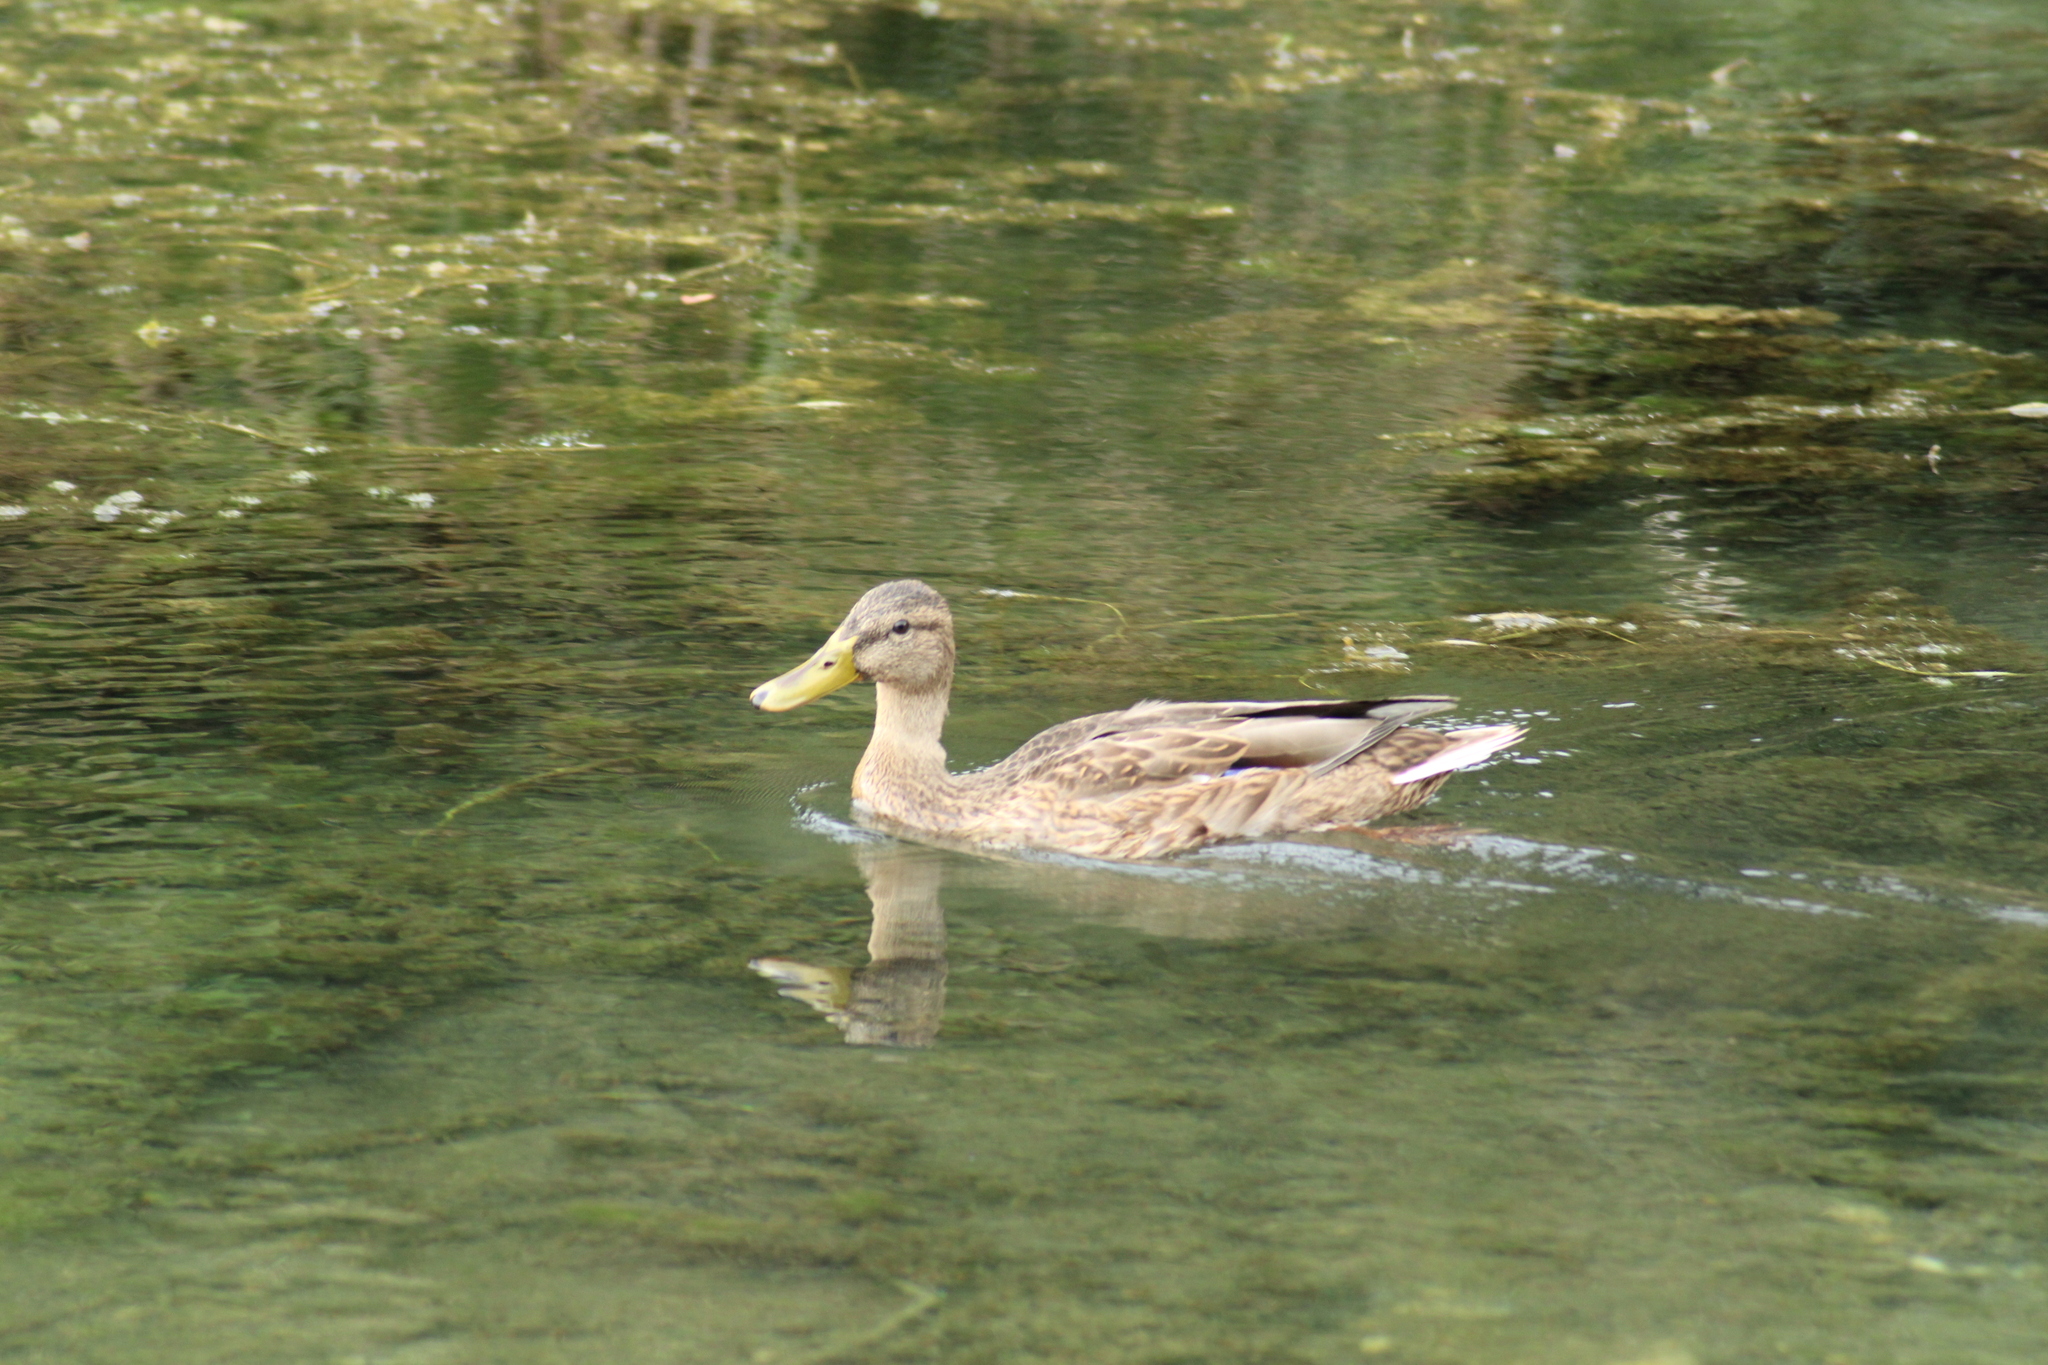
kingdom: Animalia
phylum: Chordata
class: Aves
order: Anseriformes
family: Anatidae
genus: Anas
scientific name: Anas platyrhynchos
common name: Mallard
